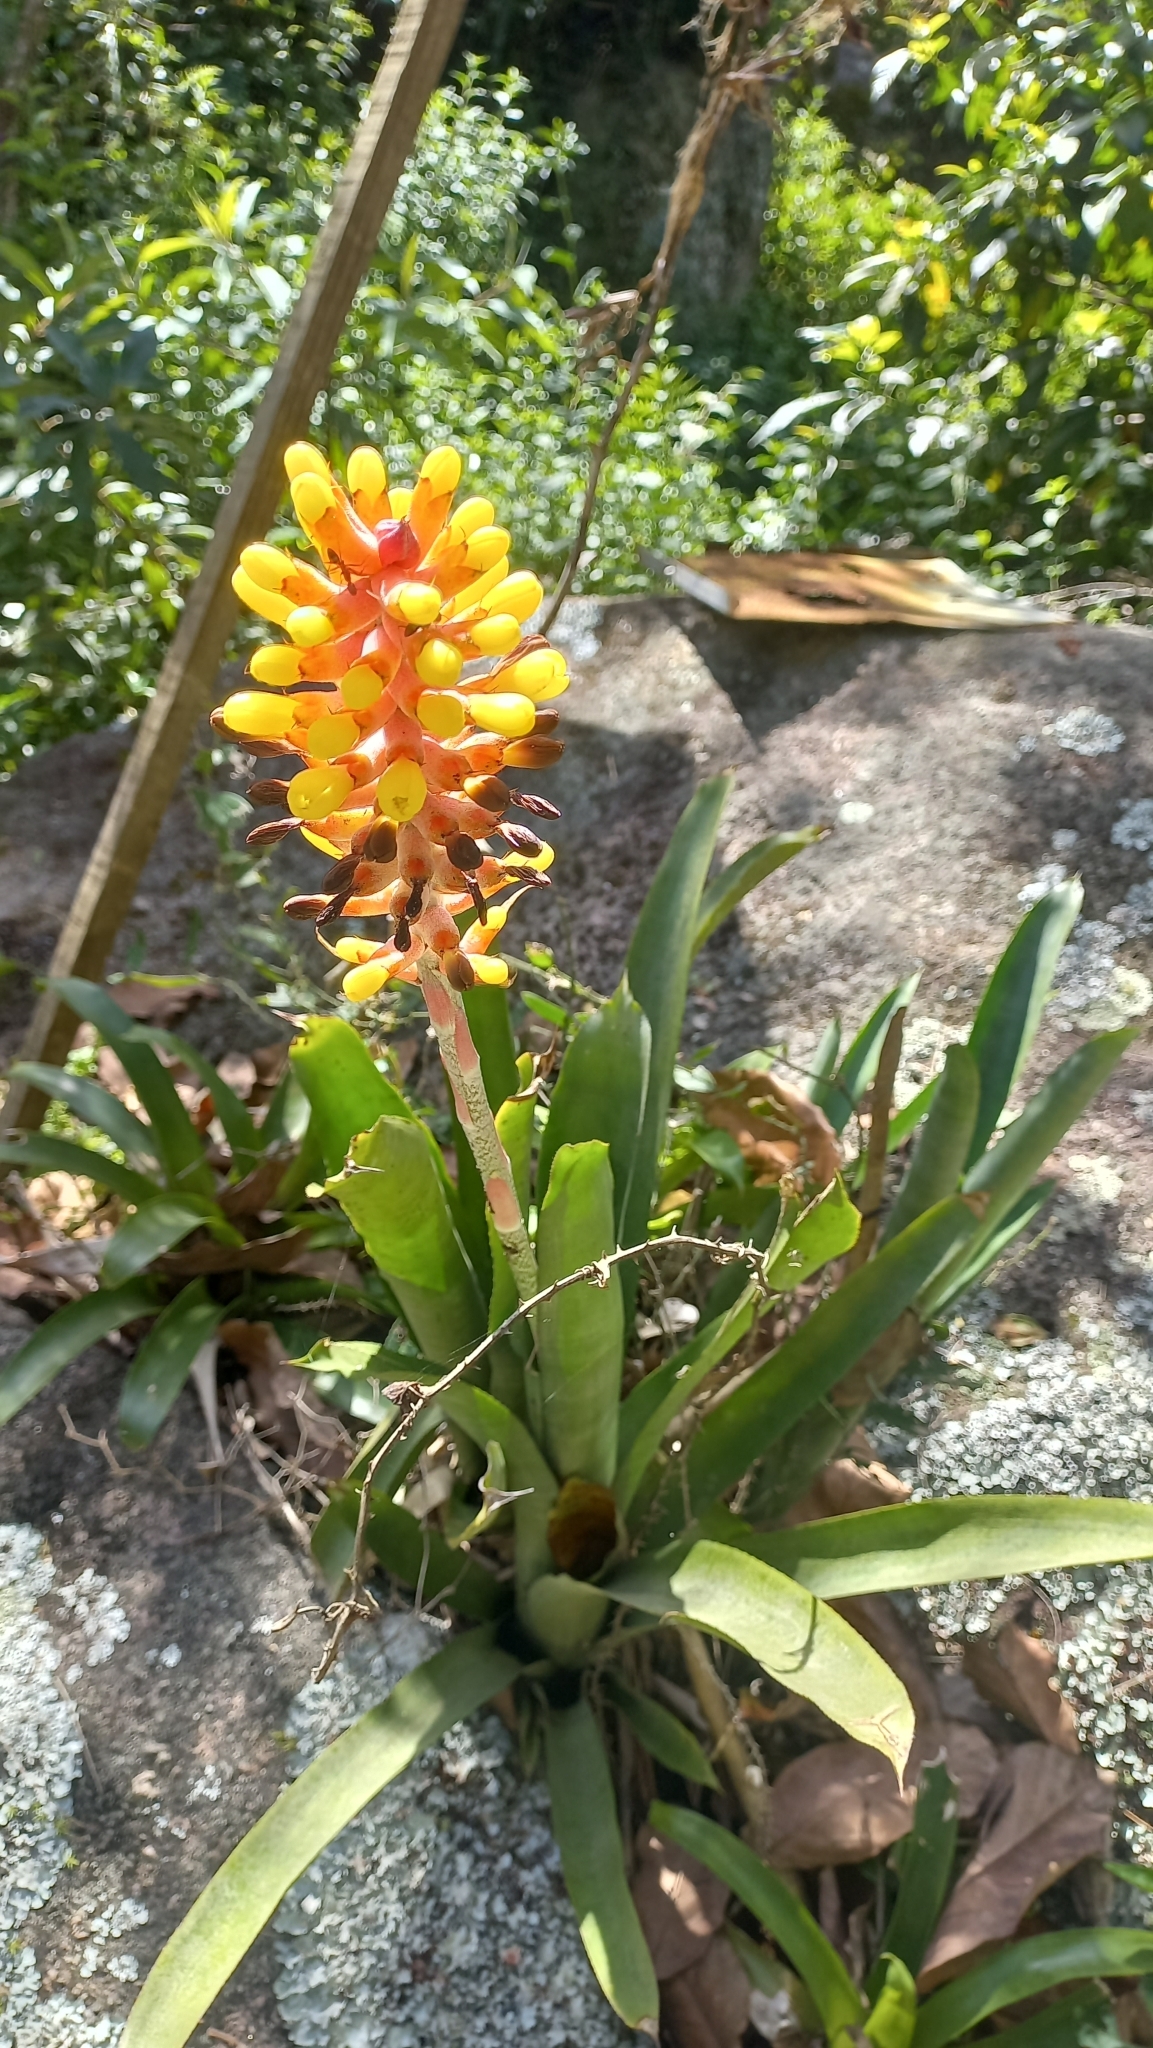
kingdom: Plantae
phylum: Tracheophyta
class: Liliopsida
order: Poales
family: Bromeliaceae
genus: Aechmea
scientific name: Aechmea kertesziae
